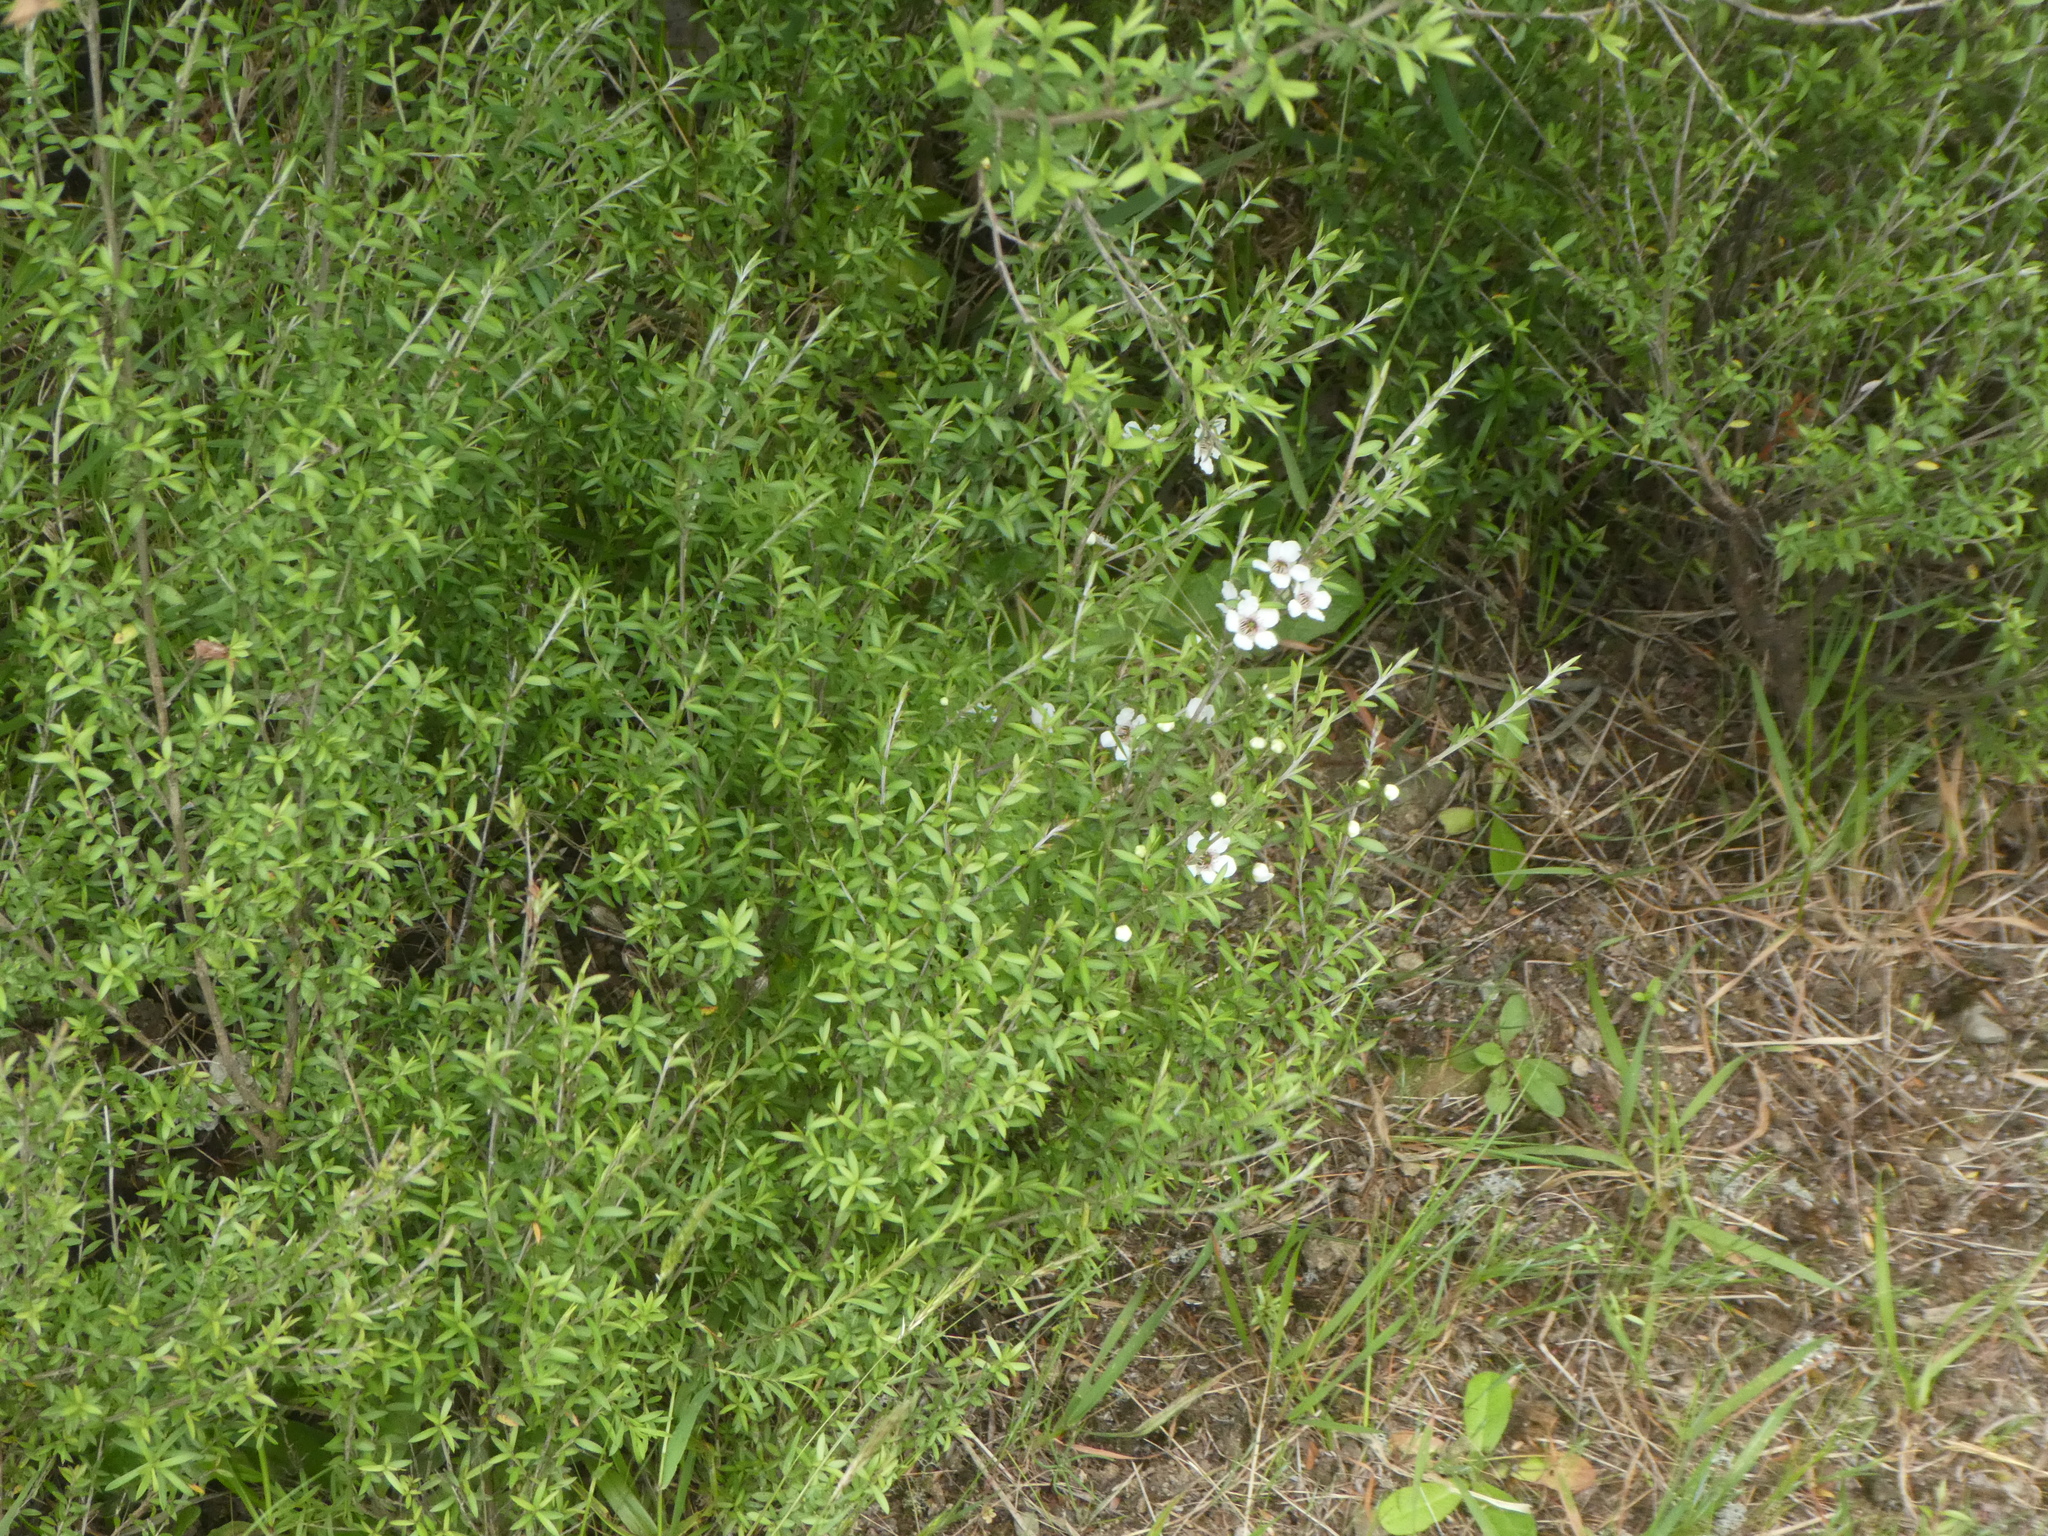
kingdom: Plantae
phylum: Tracheophyta
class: Magnoliopsida
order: Myrtales
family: Myrtaceae
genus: Leptospermum
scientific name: Leptospermum scoparium
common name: Broom tea-tree
